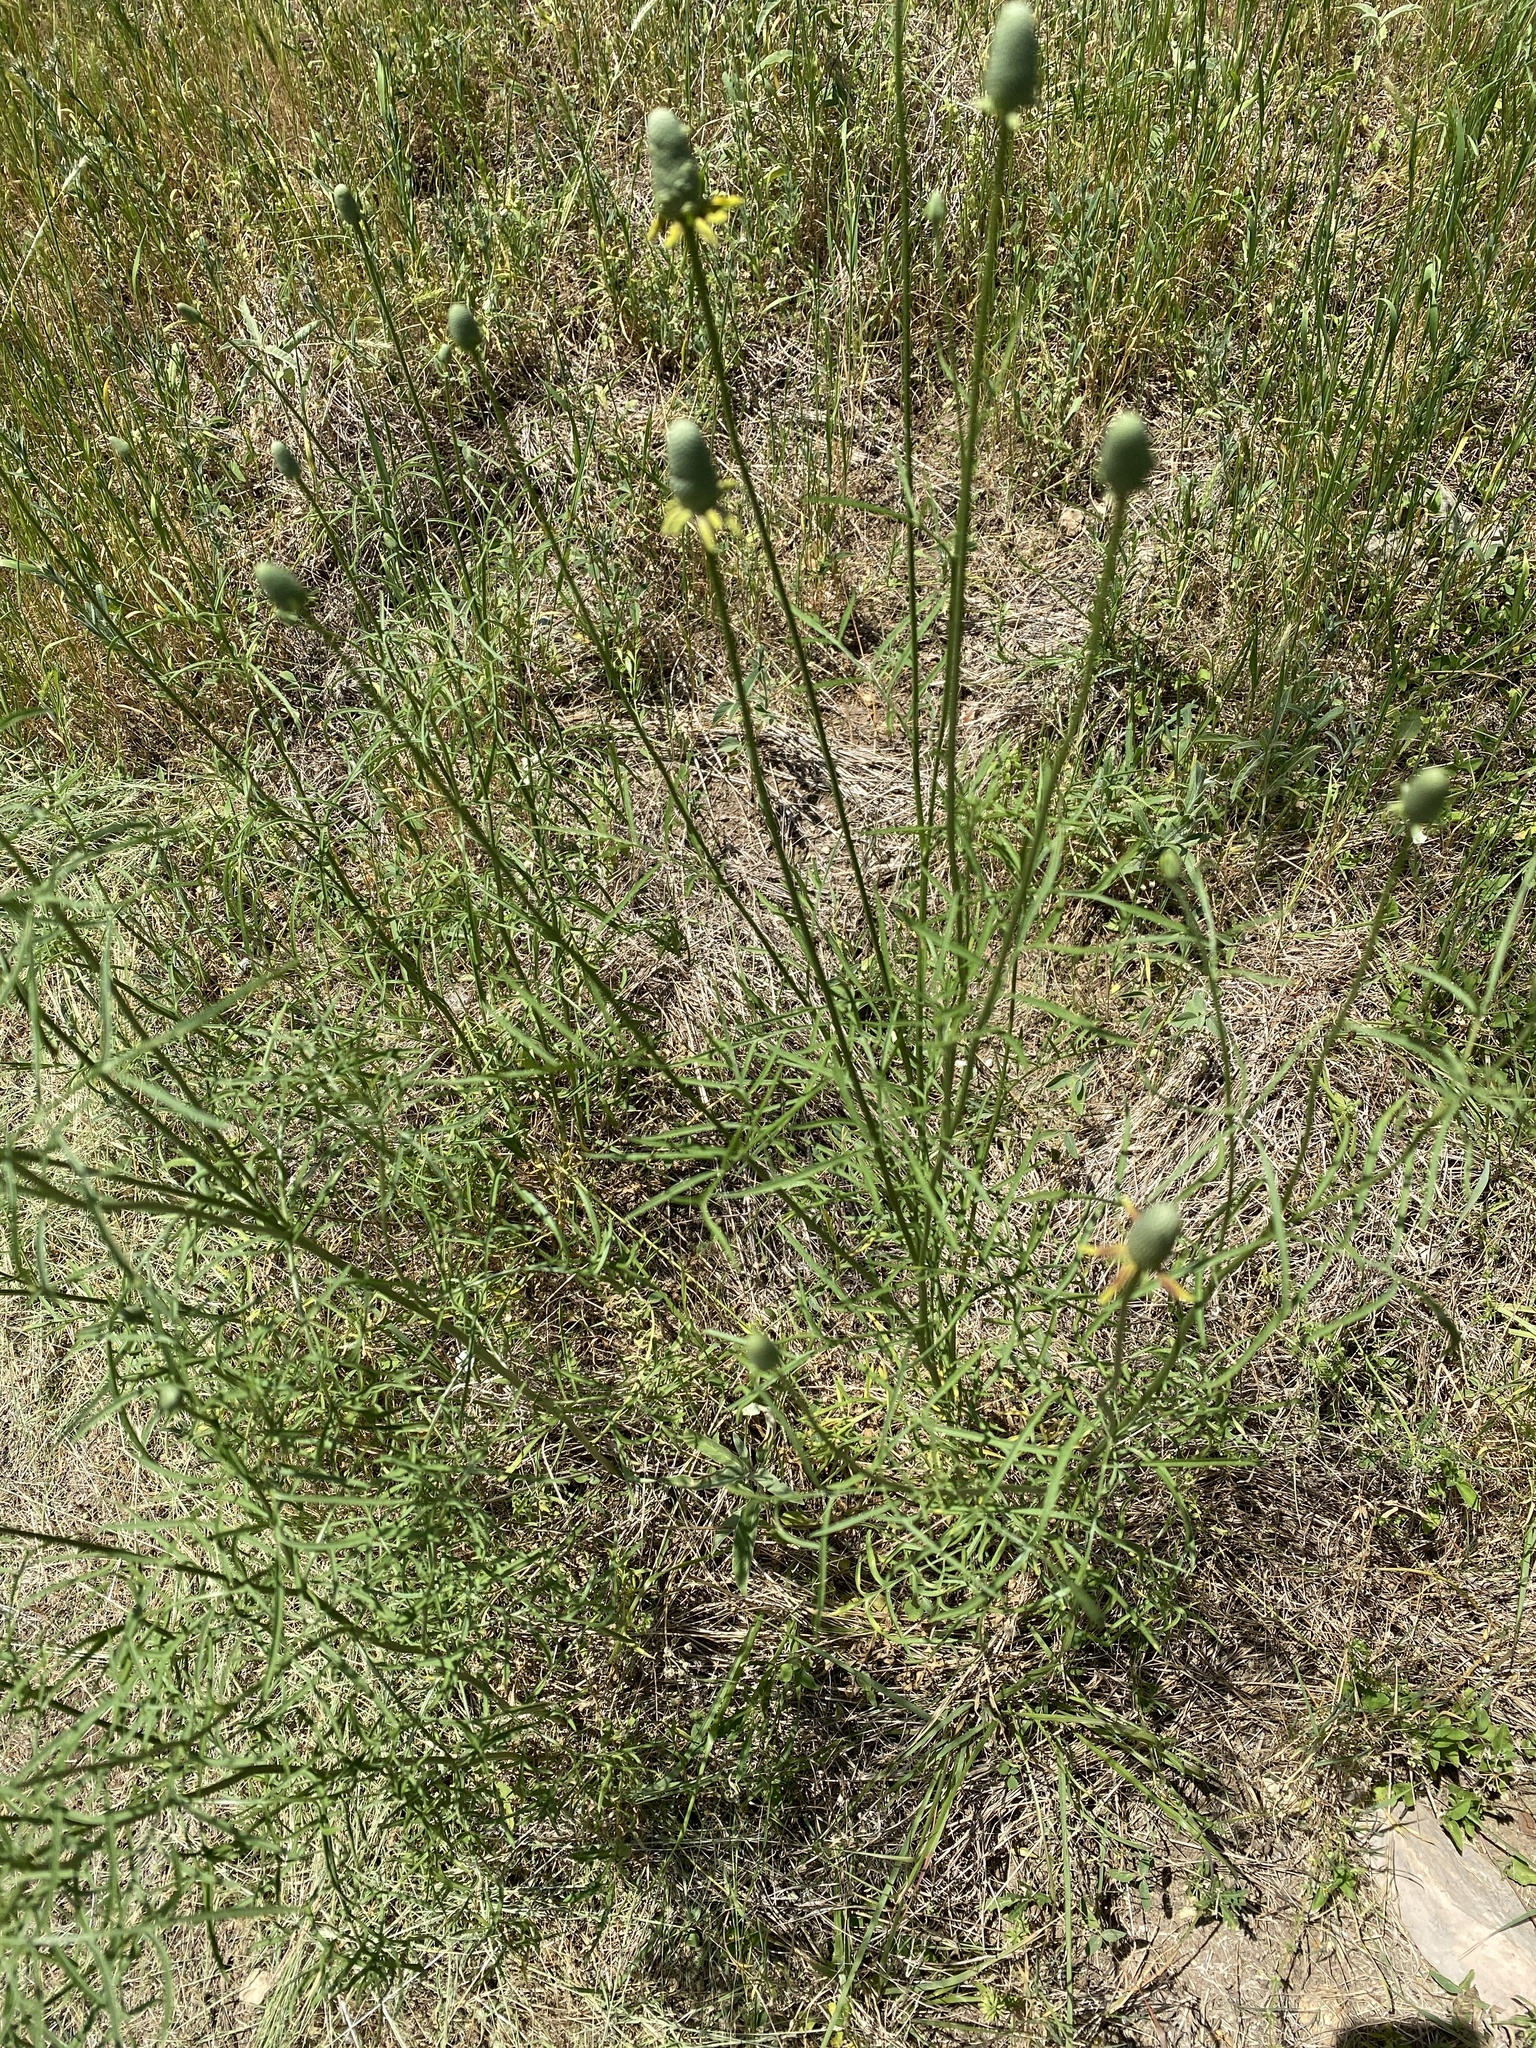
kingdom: Plantae
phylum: Tracheophyta
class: Magnoliopsida
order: Asterales
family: Asteraceae
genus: Ratibida
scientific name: Ratibida columnifera
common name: Prairie coneflower
